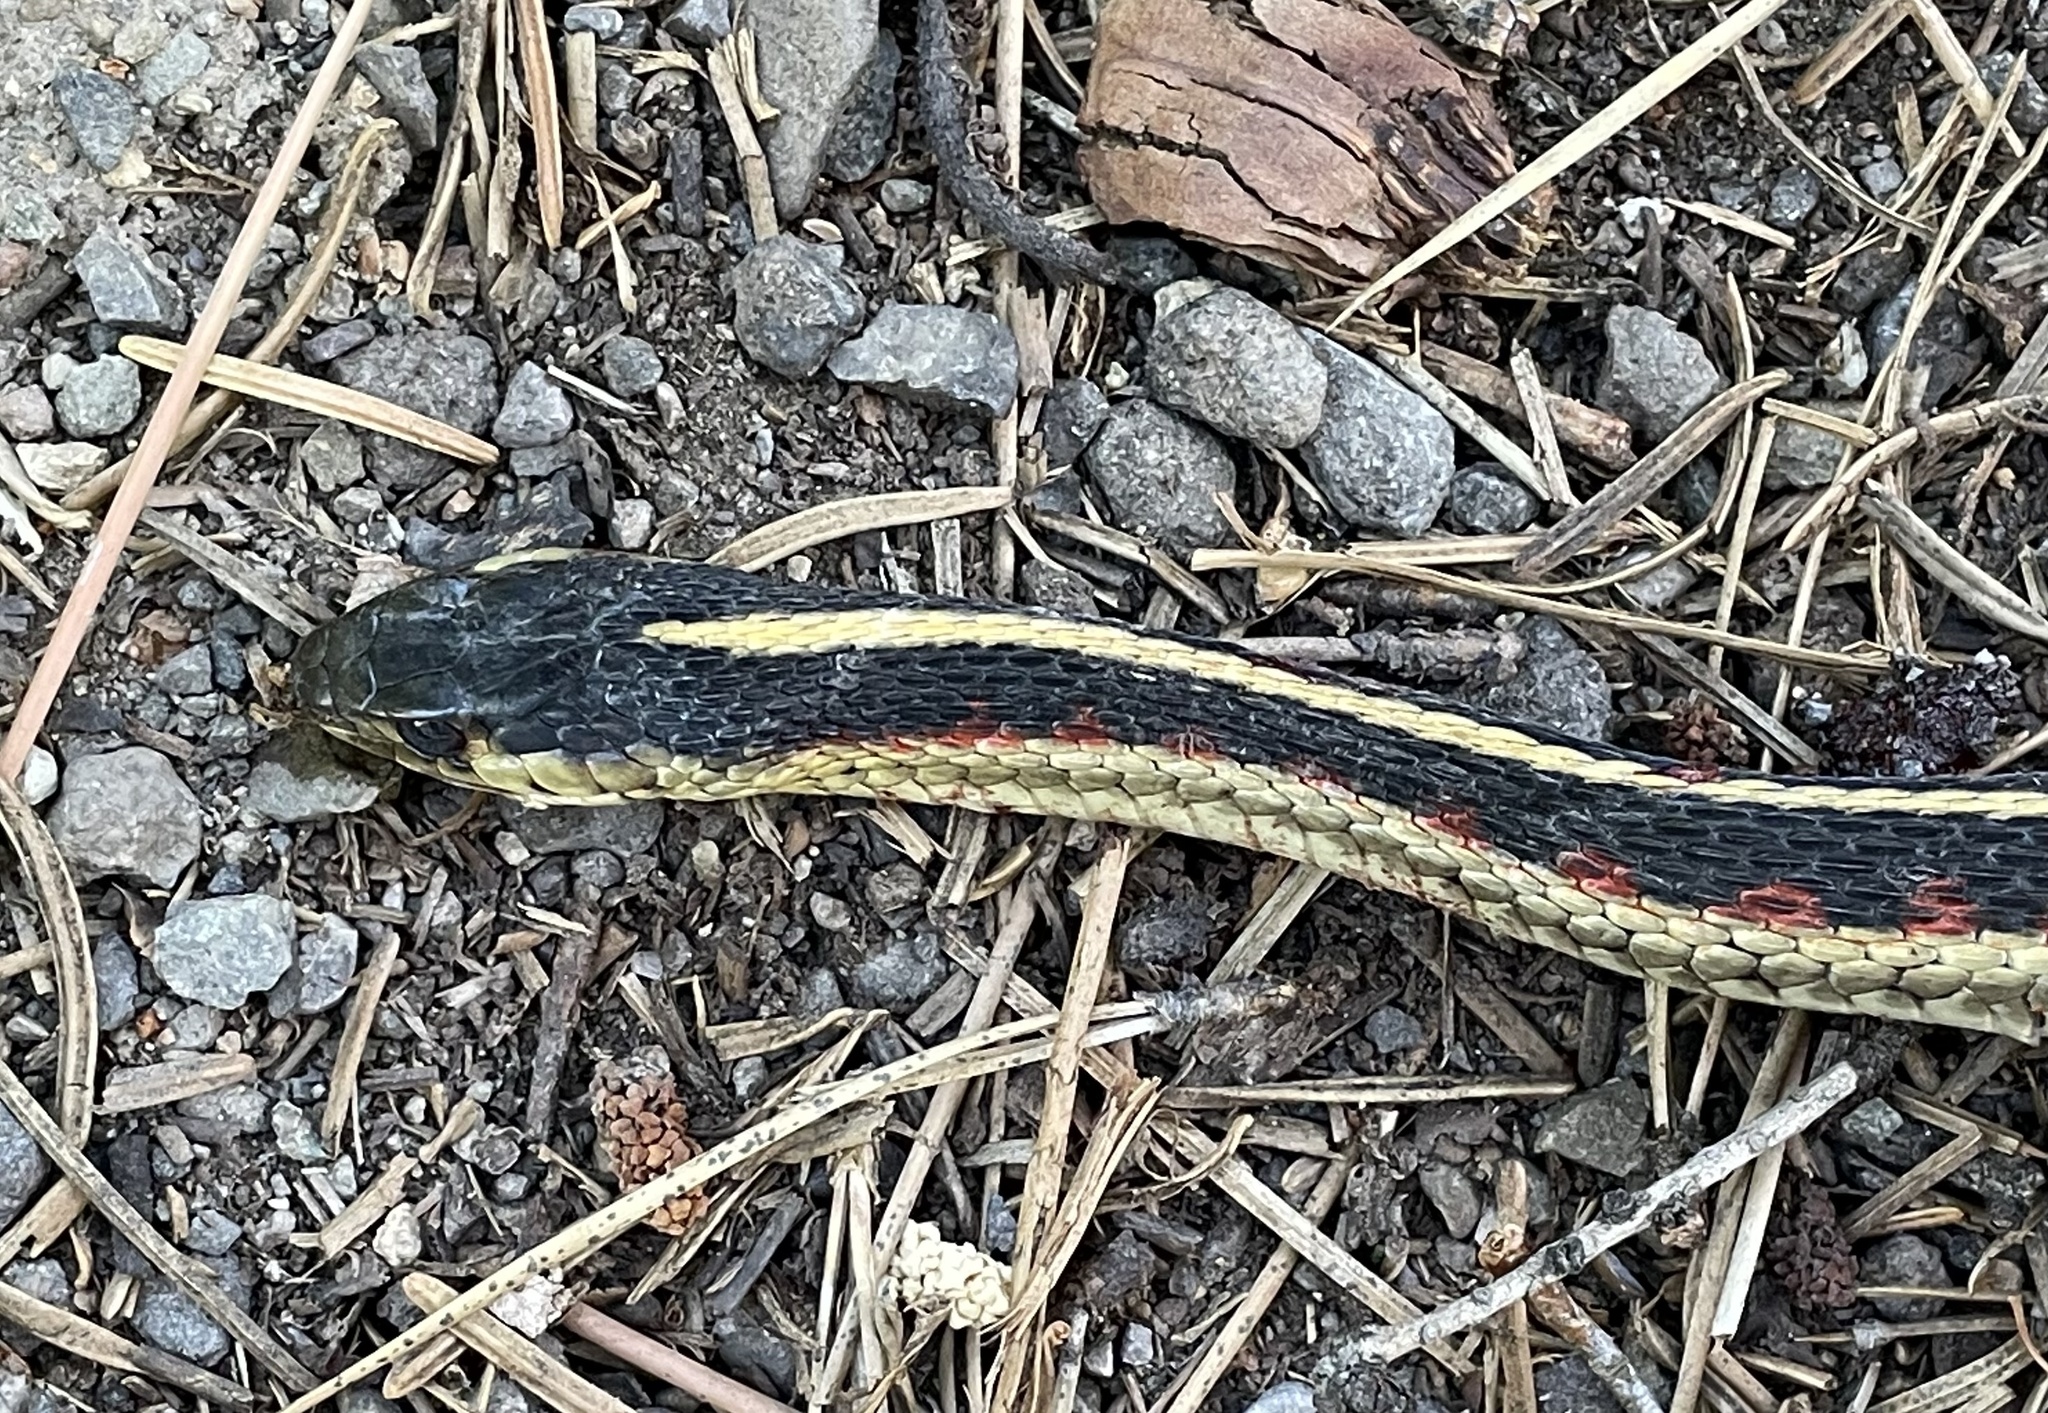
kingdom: Animalia
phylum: Chordata
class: Squamata
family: Colubridae
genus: Thamnophis
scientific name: Thamnophis sirtalis
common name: Common garter snake
